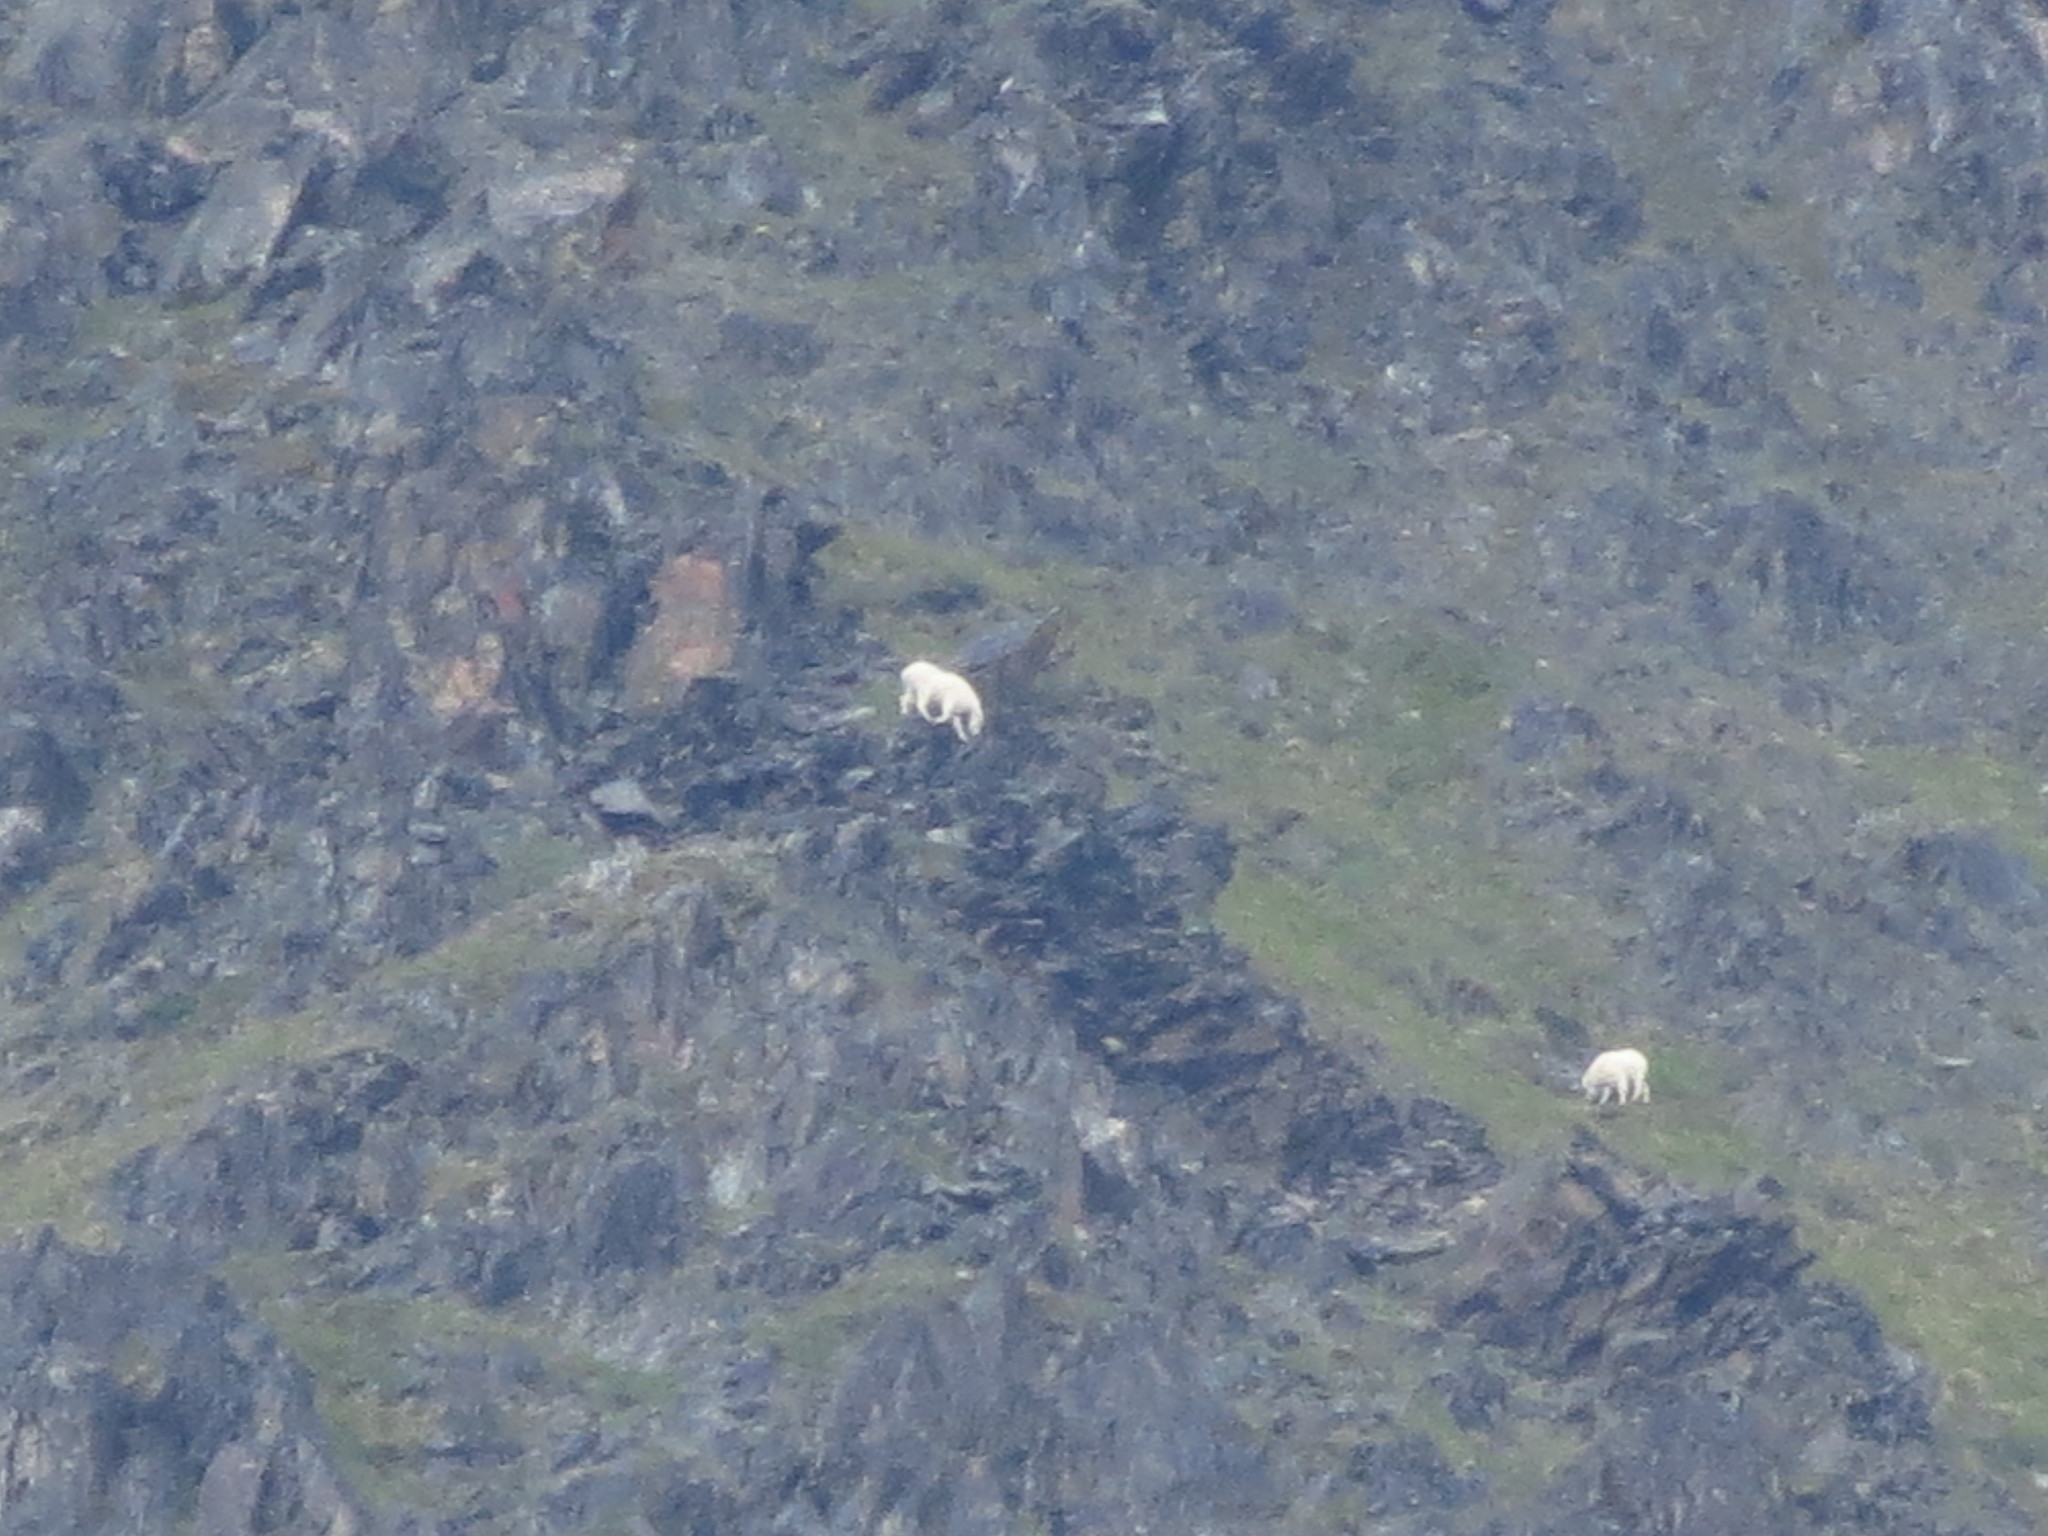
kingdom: Animalia
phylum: Chordata
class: Mammalia
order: Artiodactyla
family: Bovidae
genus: Oreamnos
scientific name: Oreamnos americanus
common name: Mountain goat
